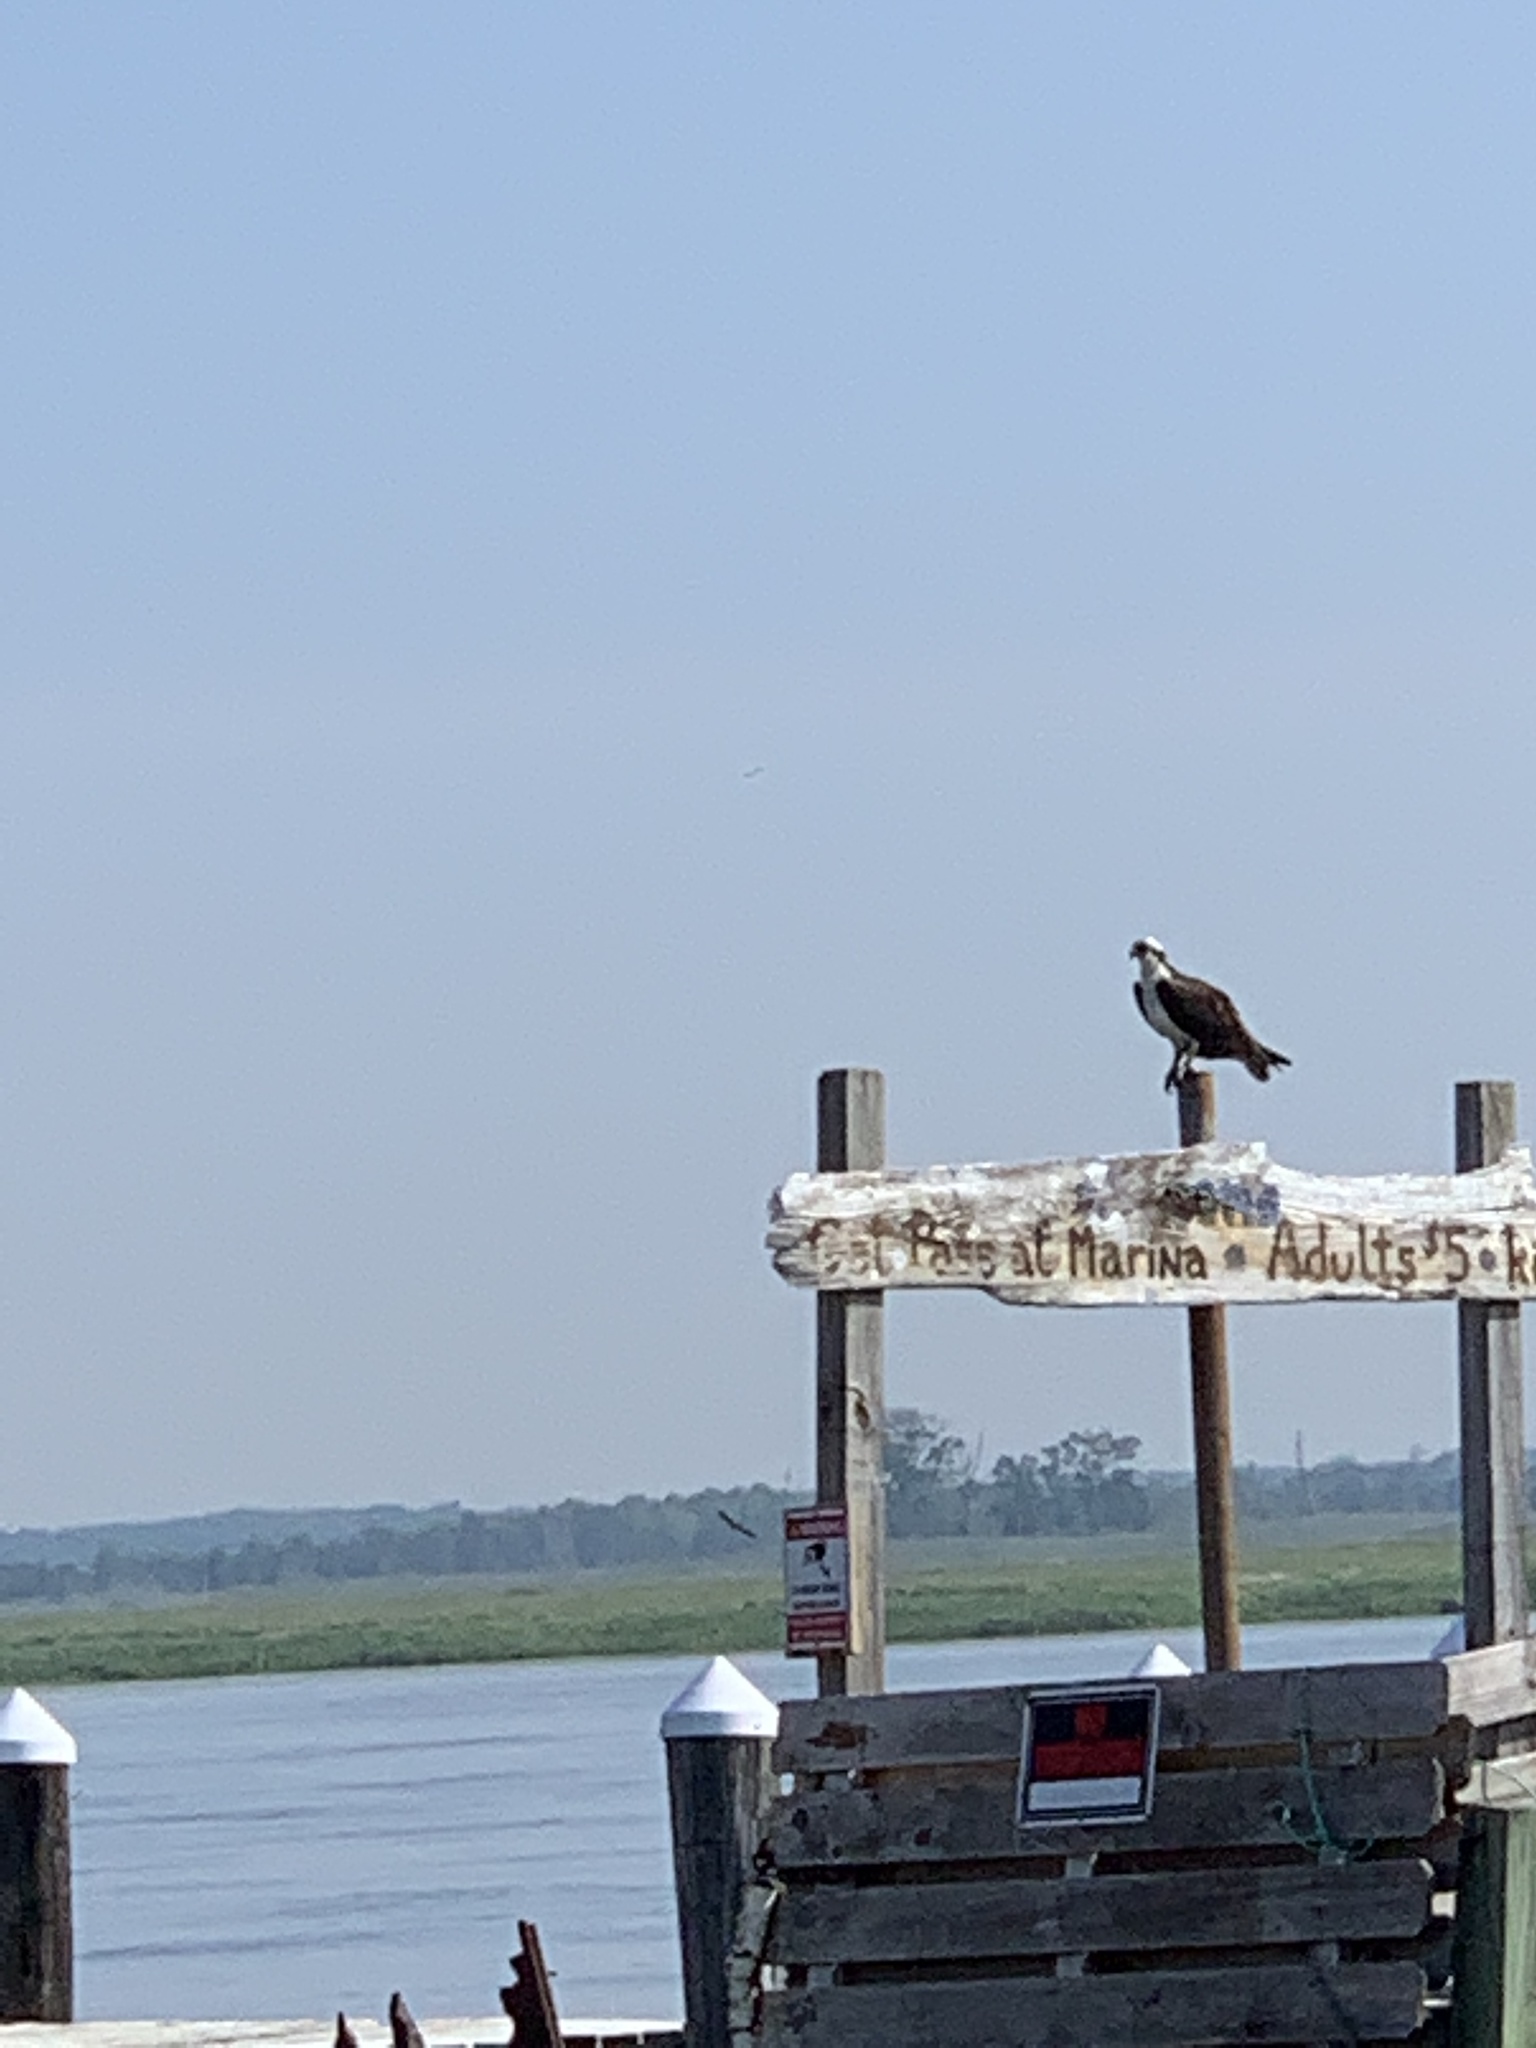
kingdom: Animalia
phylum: Chordata
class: Aves
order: Accipitriformes
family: Pandionidae
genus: Pandion
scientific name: Pandion haliaetus
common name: Osprey
